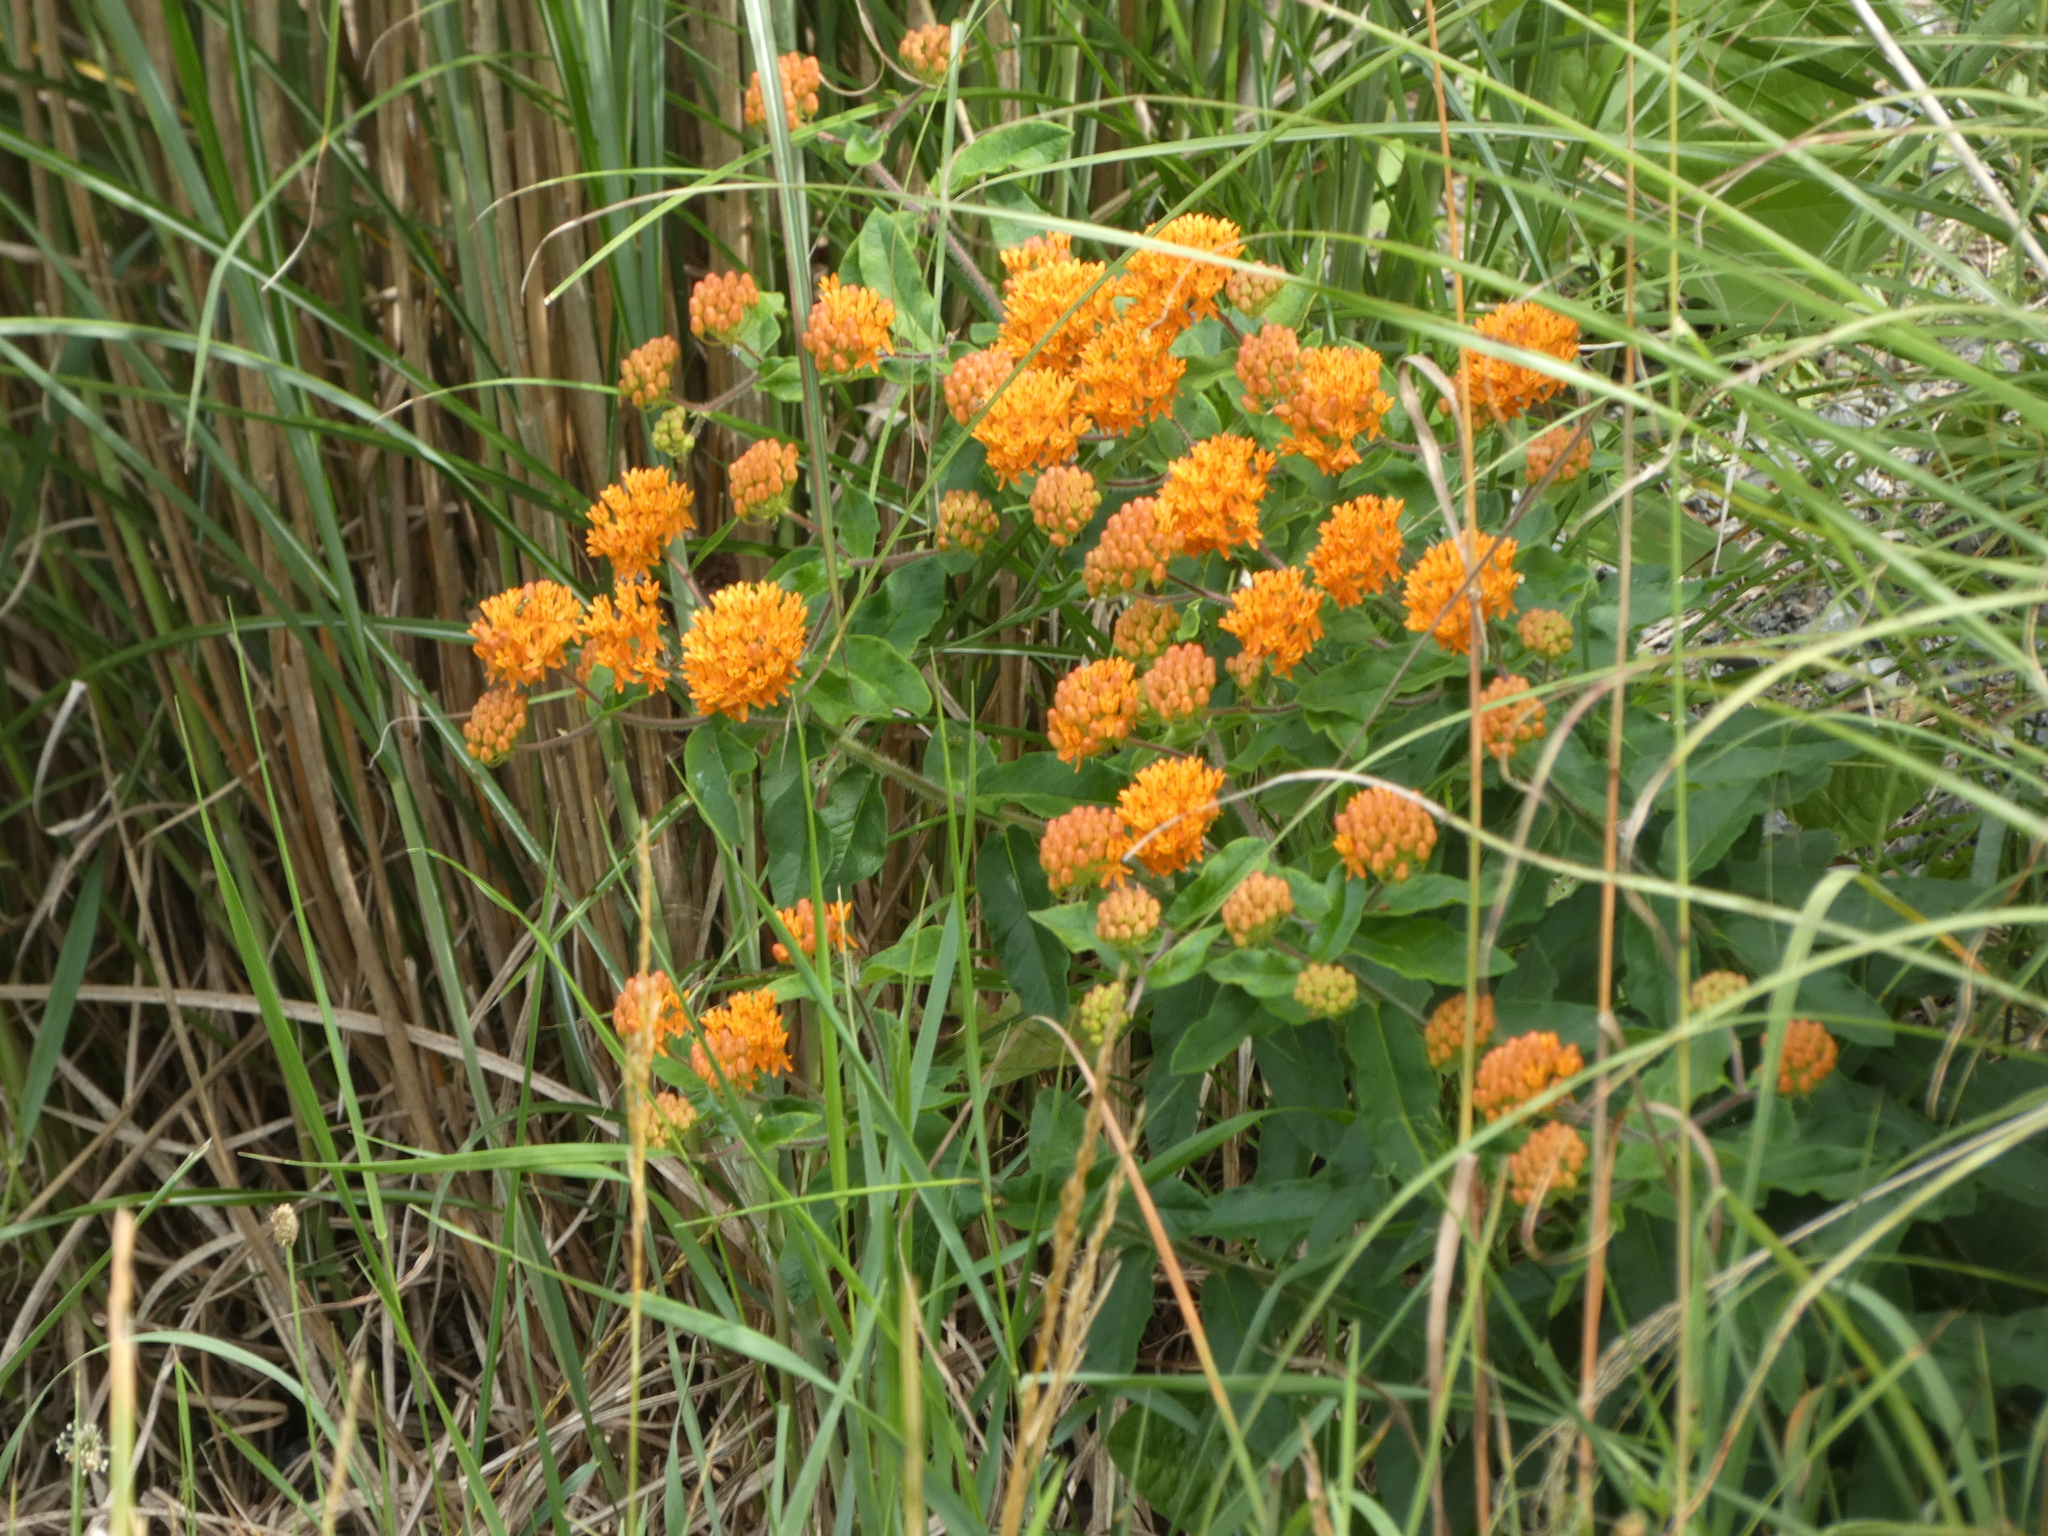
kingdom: Plantae
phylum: Tracheophyta
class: Magnoliopsida
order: Gentianales
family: Apocynaceae
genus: Asclepias
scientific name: Asclepias tuberosa
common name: Butterfly milkweed
